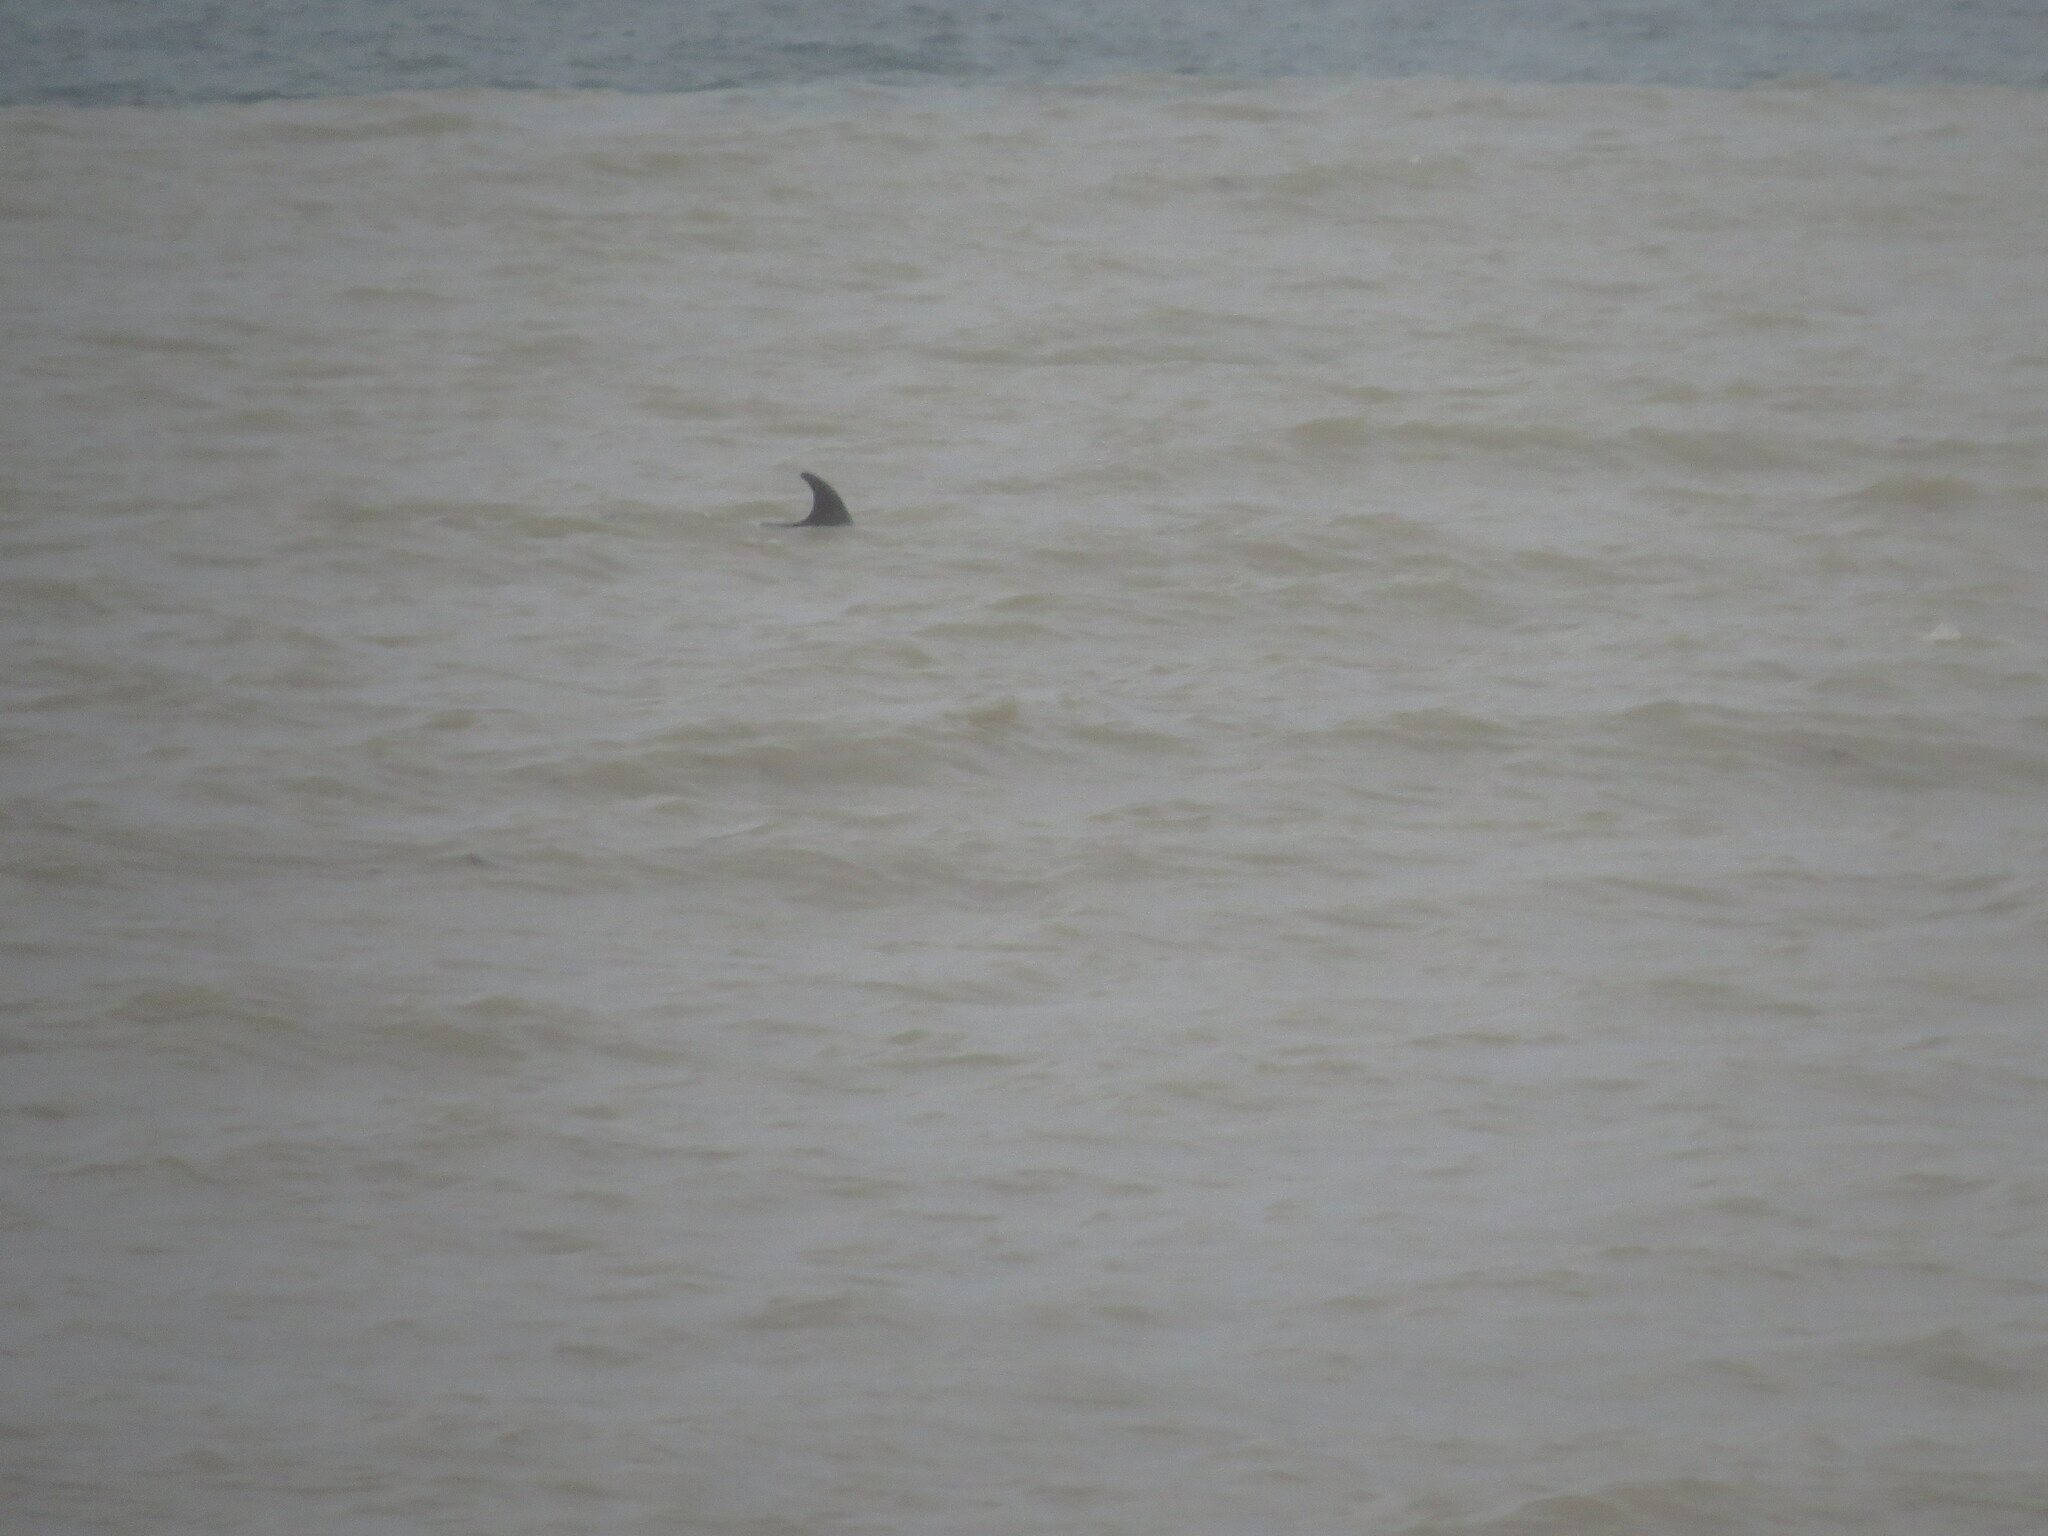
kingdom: Animalia
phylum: Chordata
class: Mammalia
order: Cetacea
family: Delphinidae
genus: Tursiops
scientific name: Tursiops truncatus
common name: Bottlenose dolphin
